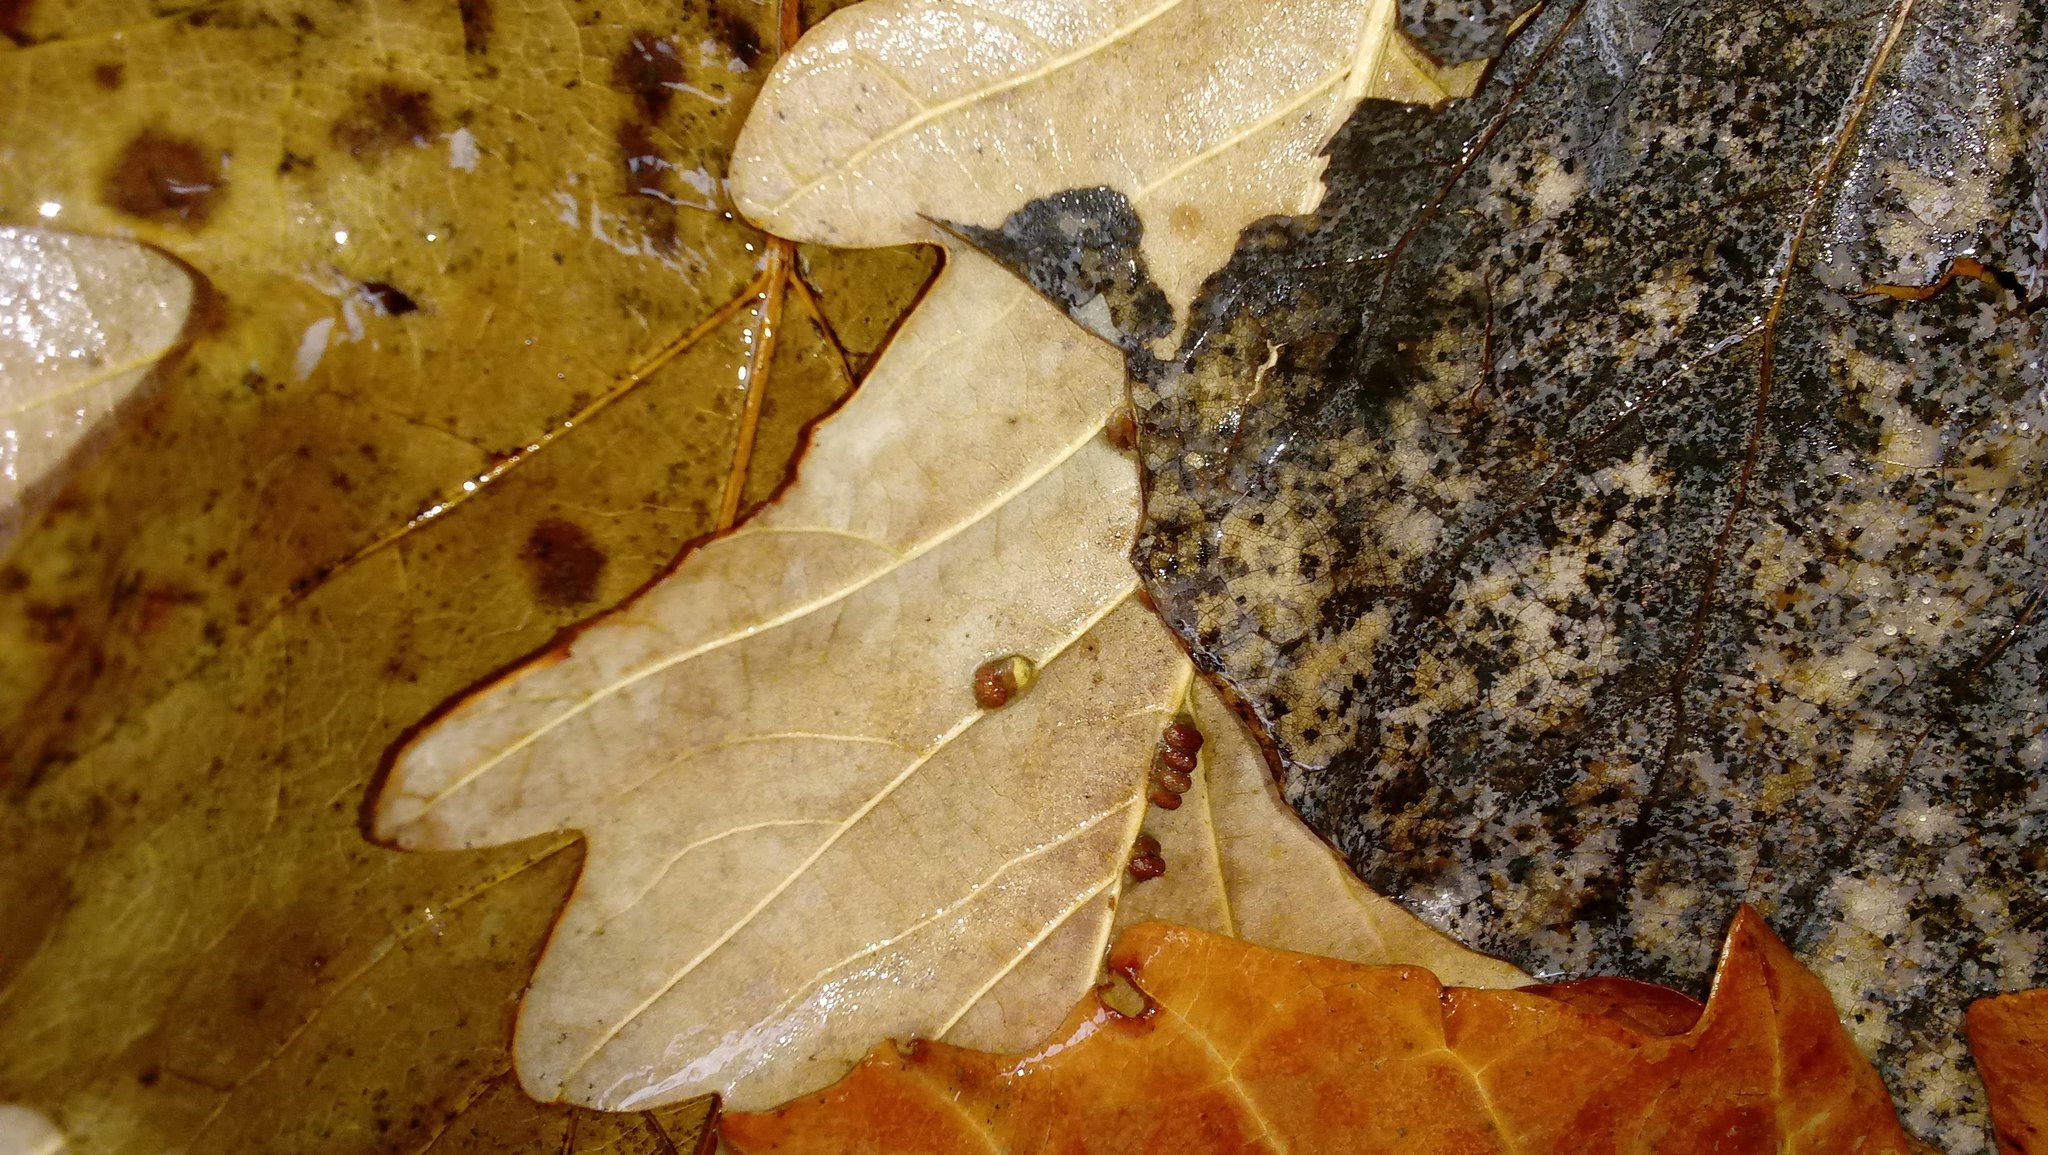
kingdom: Animalia
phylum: Arthropoda
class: Insecta
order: Hymenoptera
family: Cynipidae
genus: Andricus
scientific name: Andricus Druon ignotum
